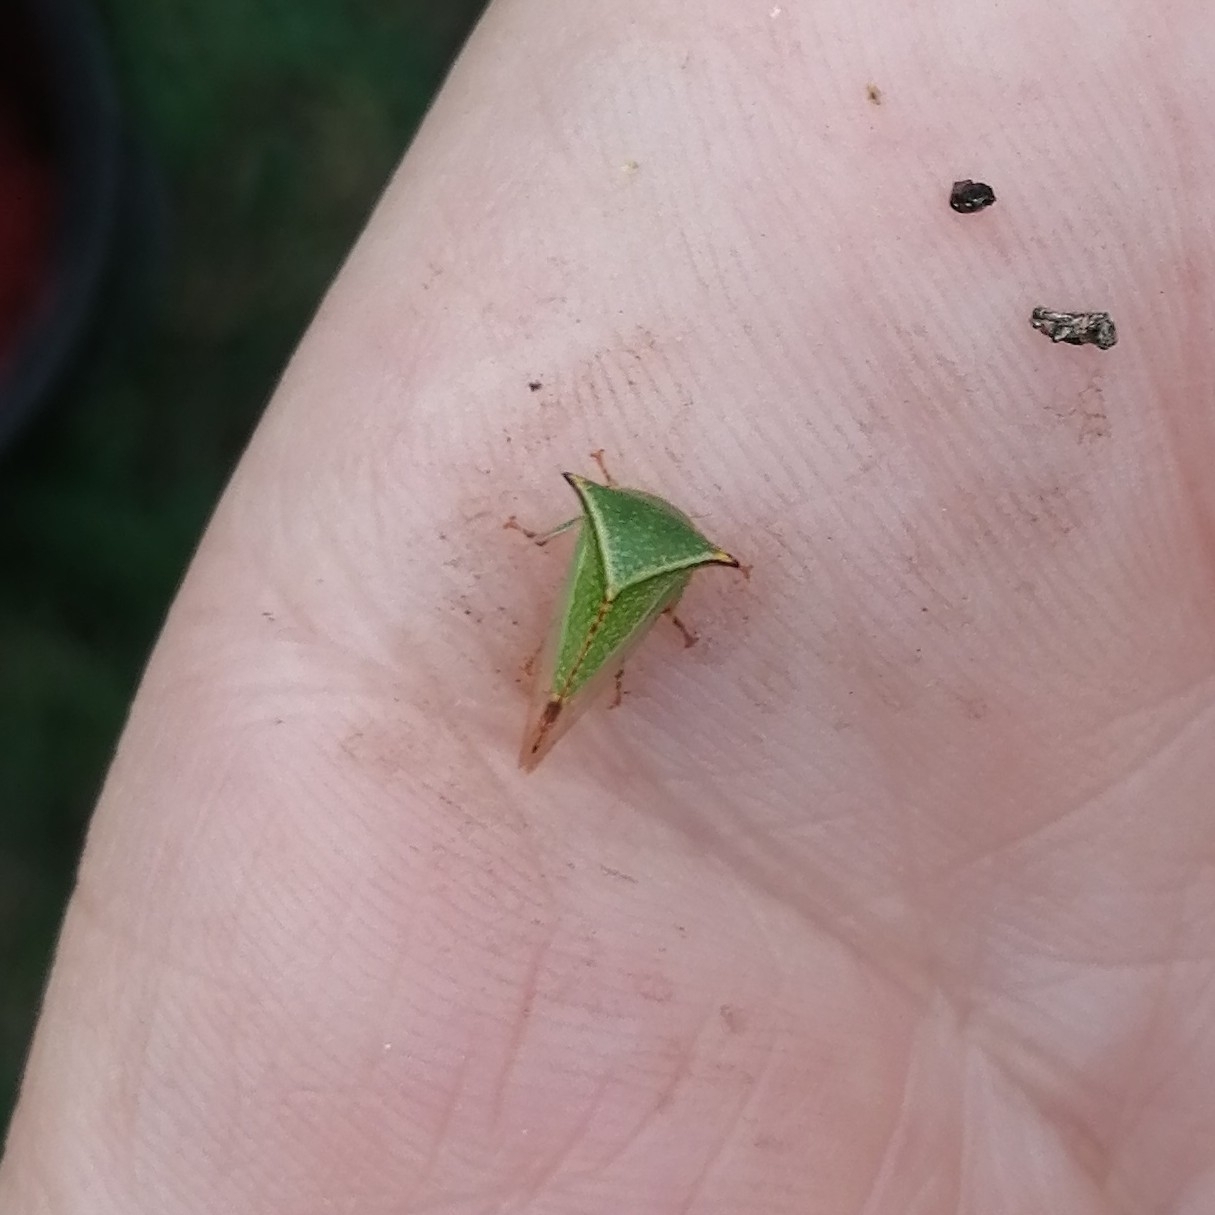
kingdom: Animalia
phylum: Arthropoda
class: Insecta
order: Hemiptera
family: Membracidae
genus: Stictocephala
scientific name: Stictocephala bisonia
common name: American buffalo treehopper
